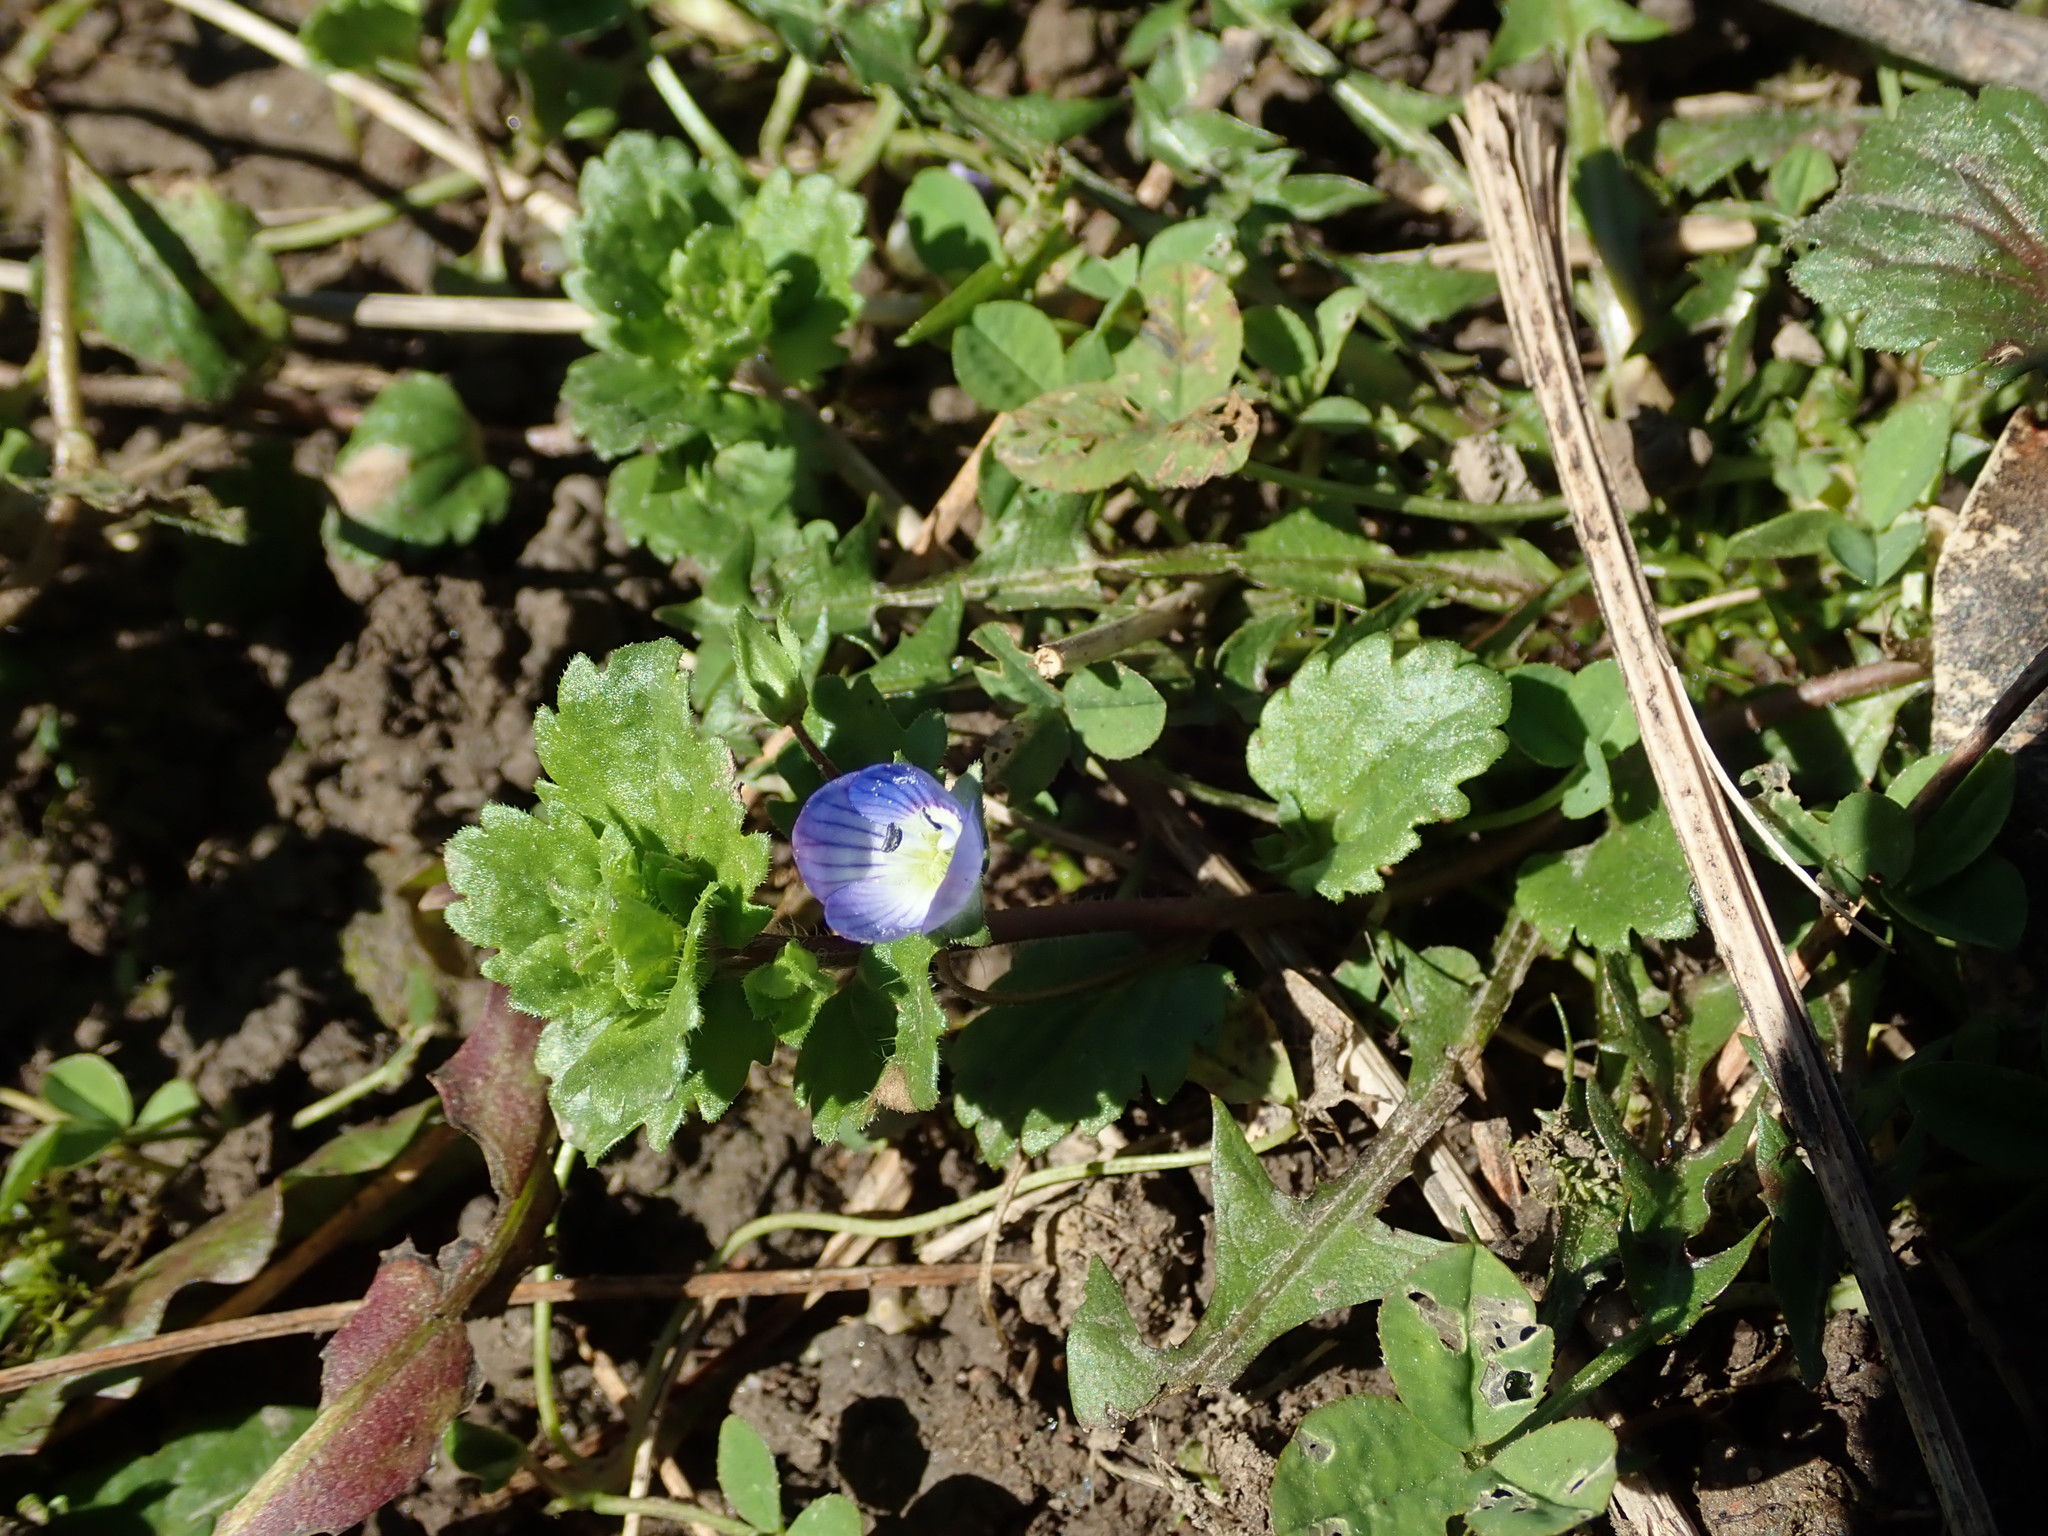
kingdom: Plantae
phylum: Tracheophyta
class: Magnoliopsida
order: Lamiales
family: Plantaginaceae
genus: Veronica
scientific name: Veronica persica
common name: Common field-speedwell
